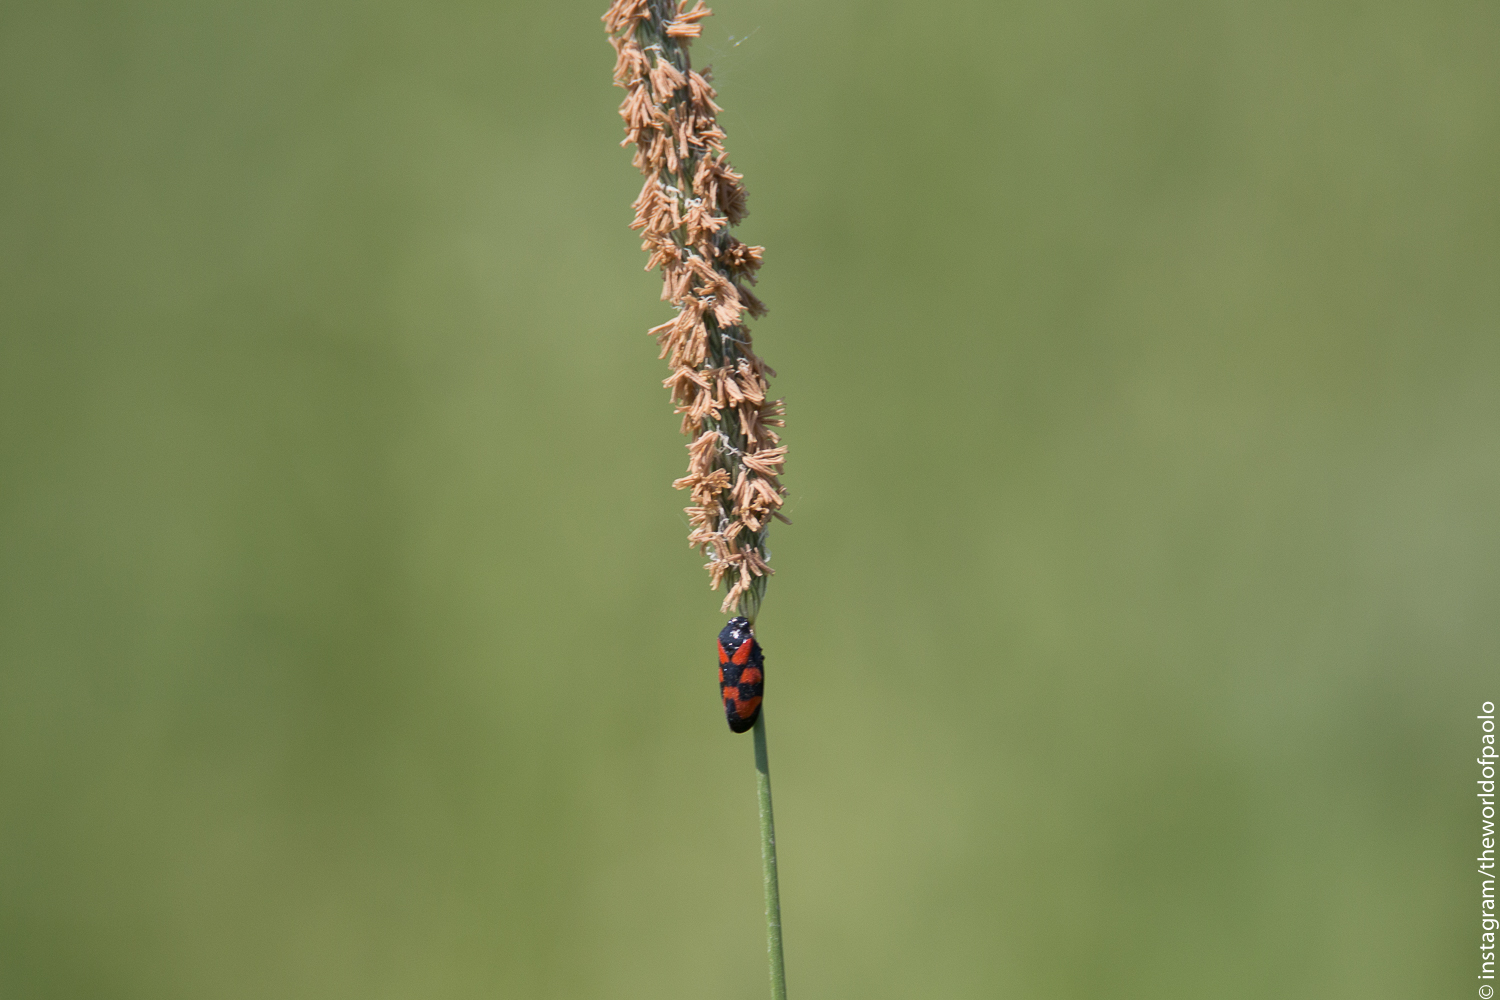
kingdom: Animalia
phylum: Arthropoda
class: Insecta
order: Hemiptera
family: Cercopidae
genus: Cercopis
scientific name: Cercopis vulnerata
